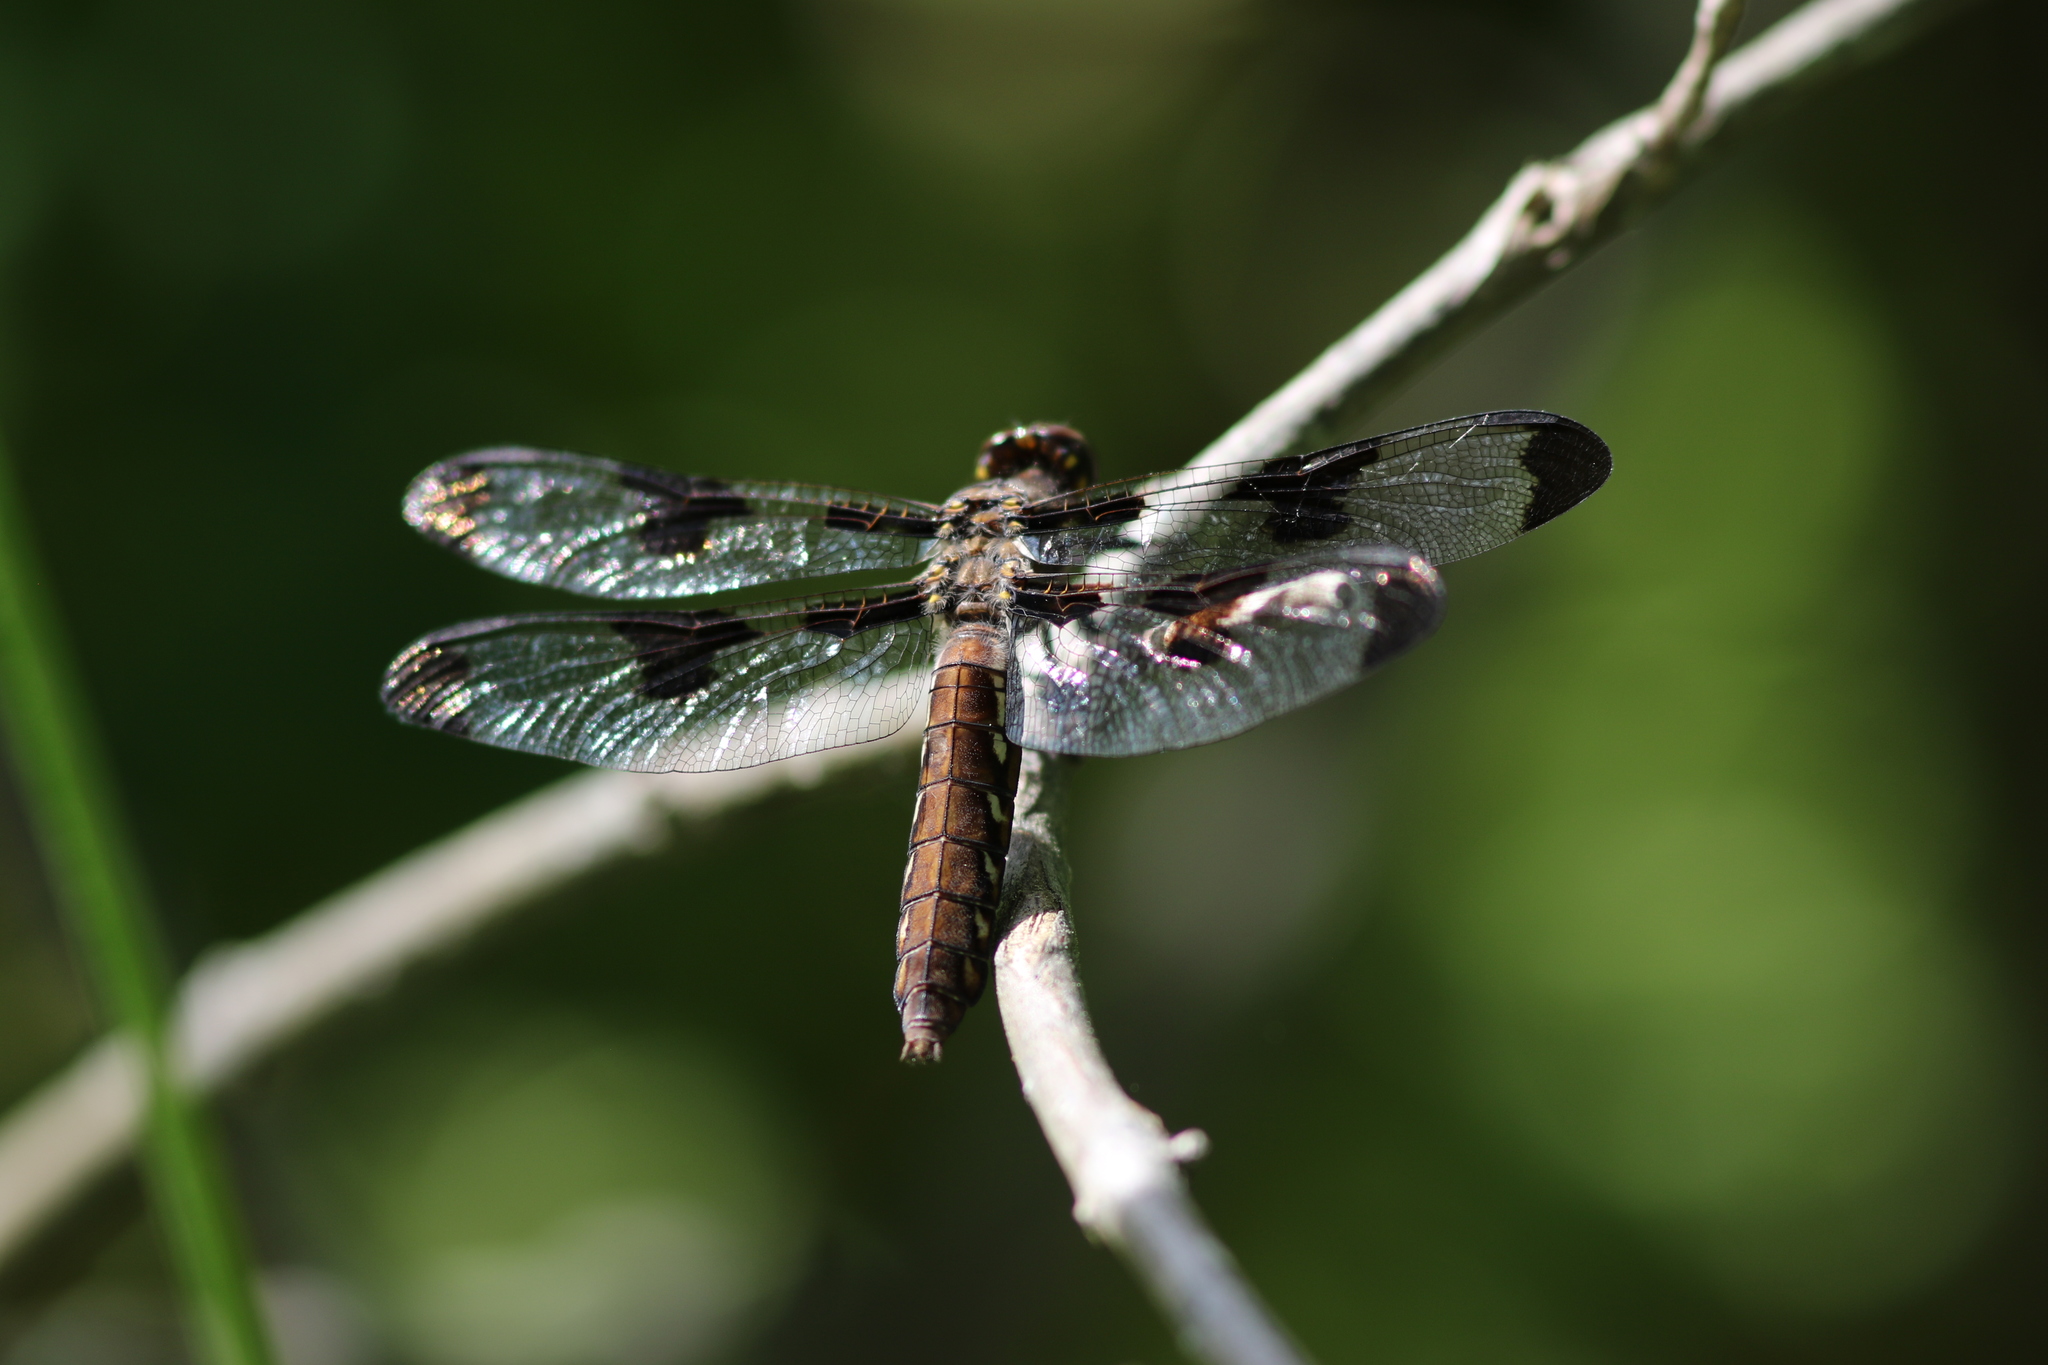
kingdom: Animalia
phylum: Arthropoda
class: Insecta
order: Odonata
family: Libellulidae
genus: Plathemis
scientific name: Plathemis lydia
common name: Common whitetail
